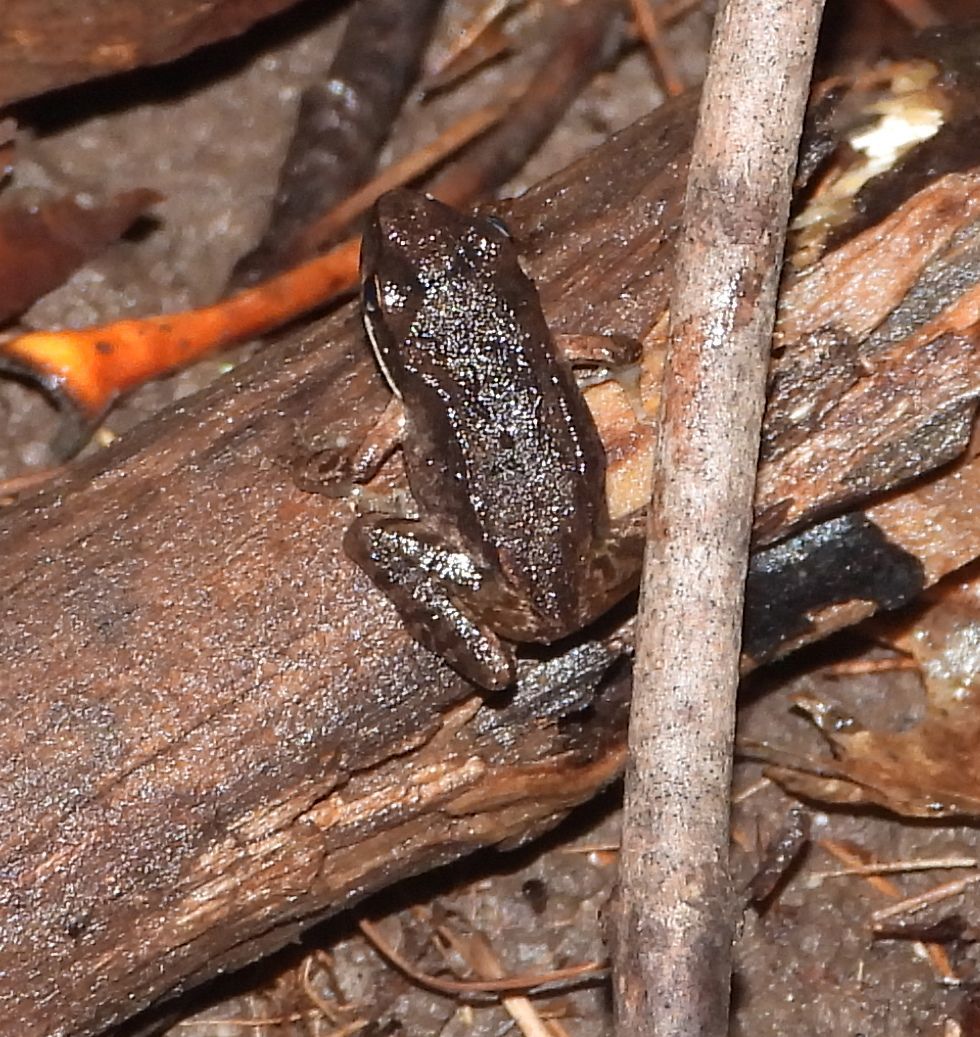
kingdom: Animalia
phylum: Chordata
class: Amphibia
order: Anura
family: Ranidae
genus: Lithobates
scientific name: Lithobates sylvaticus
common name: Wood frog
